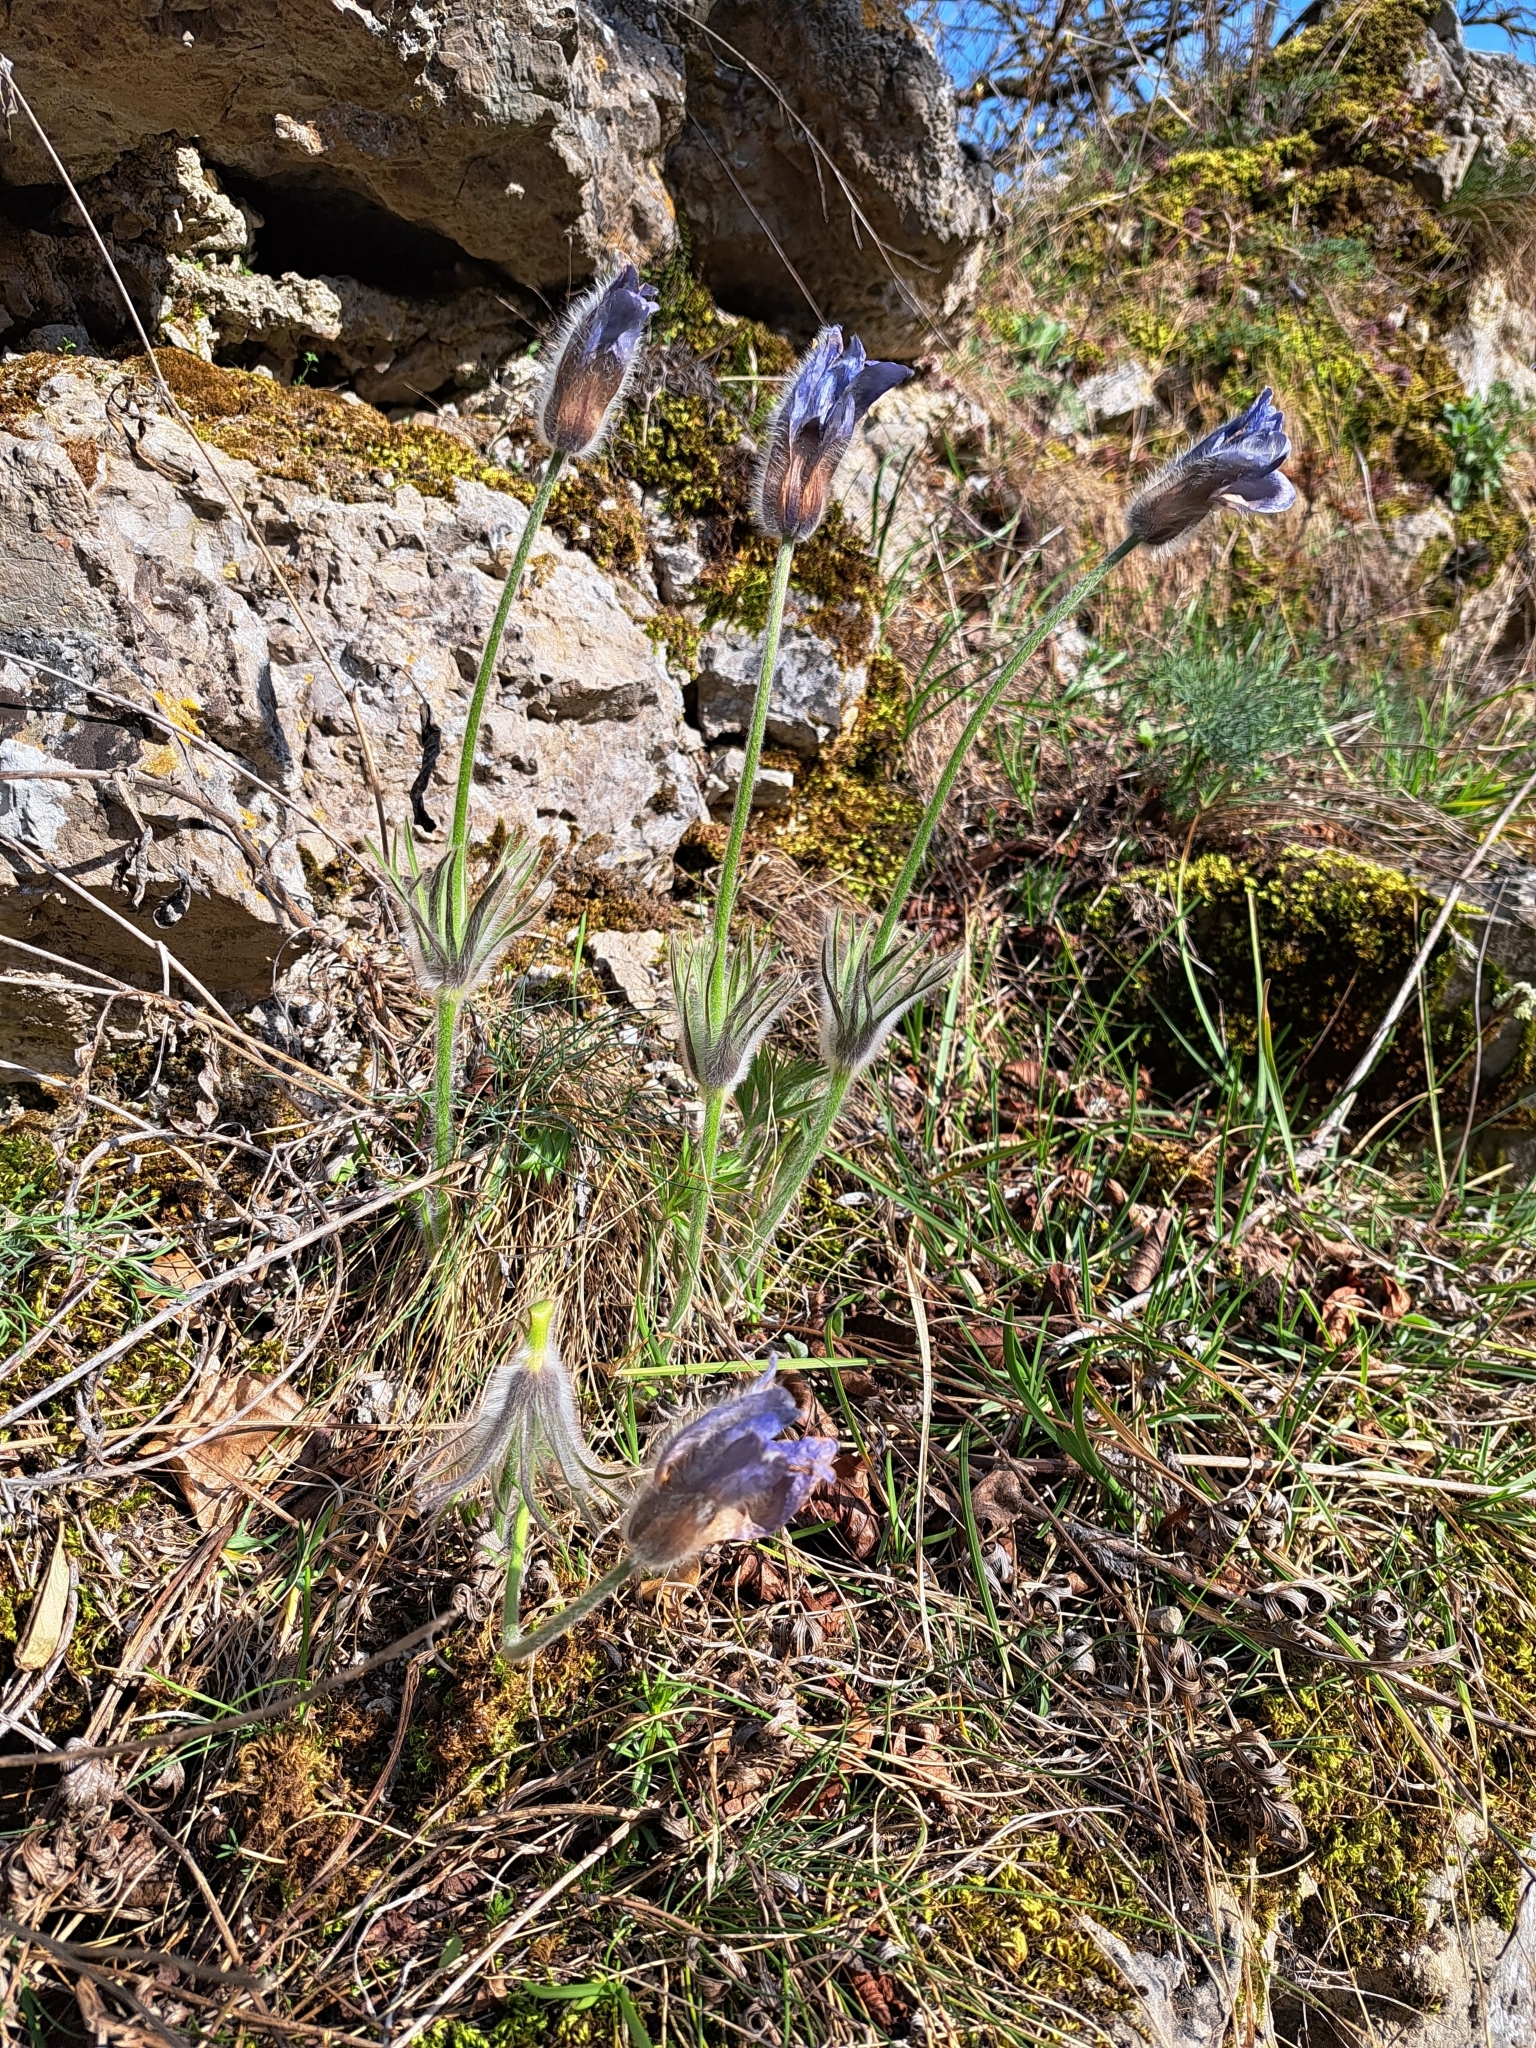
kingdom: Plantae
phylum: Tracheophyta
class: Magnoliopsida
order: Ranunculales
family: Ranunculaceae
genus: Pulsatilla
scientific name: Pulsatilla grandis
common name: Greater pasque flower
